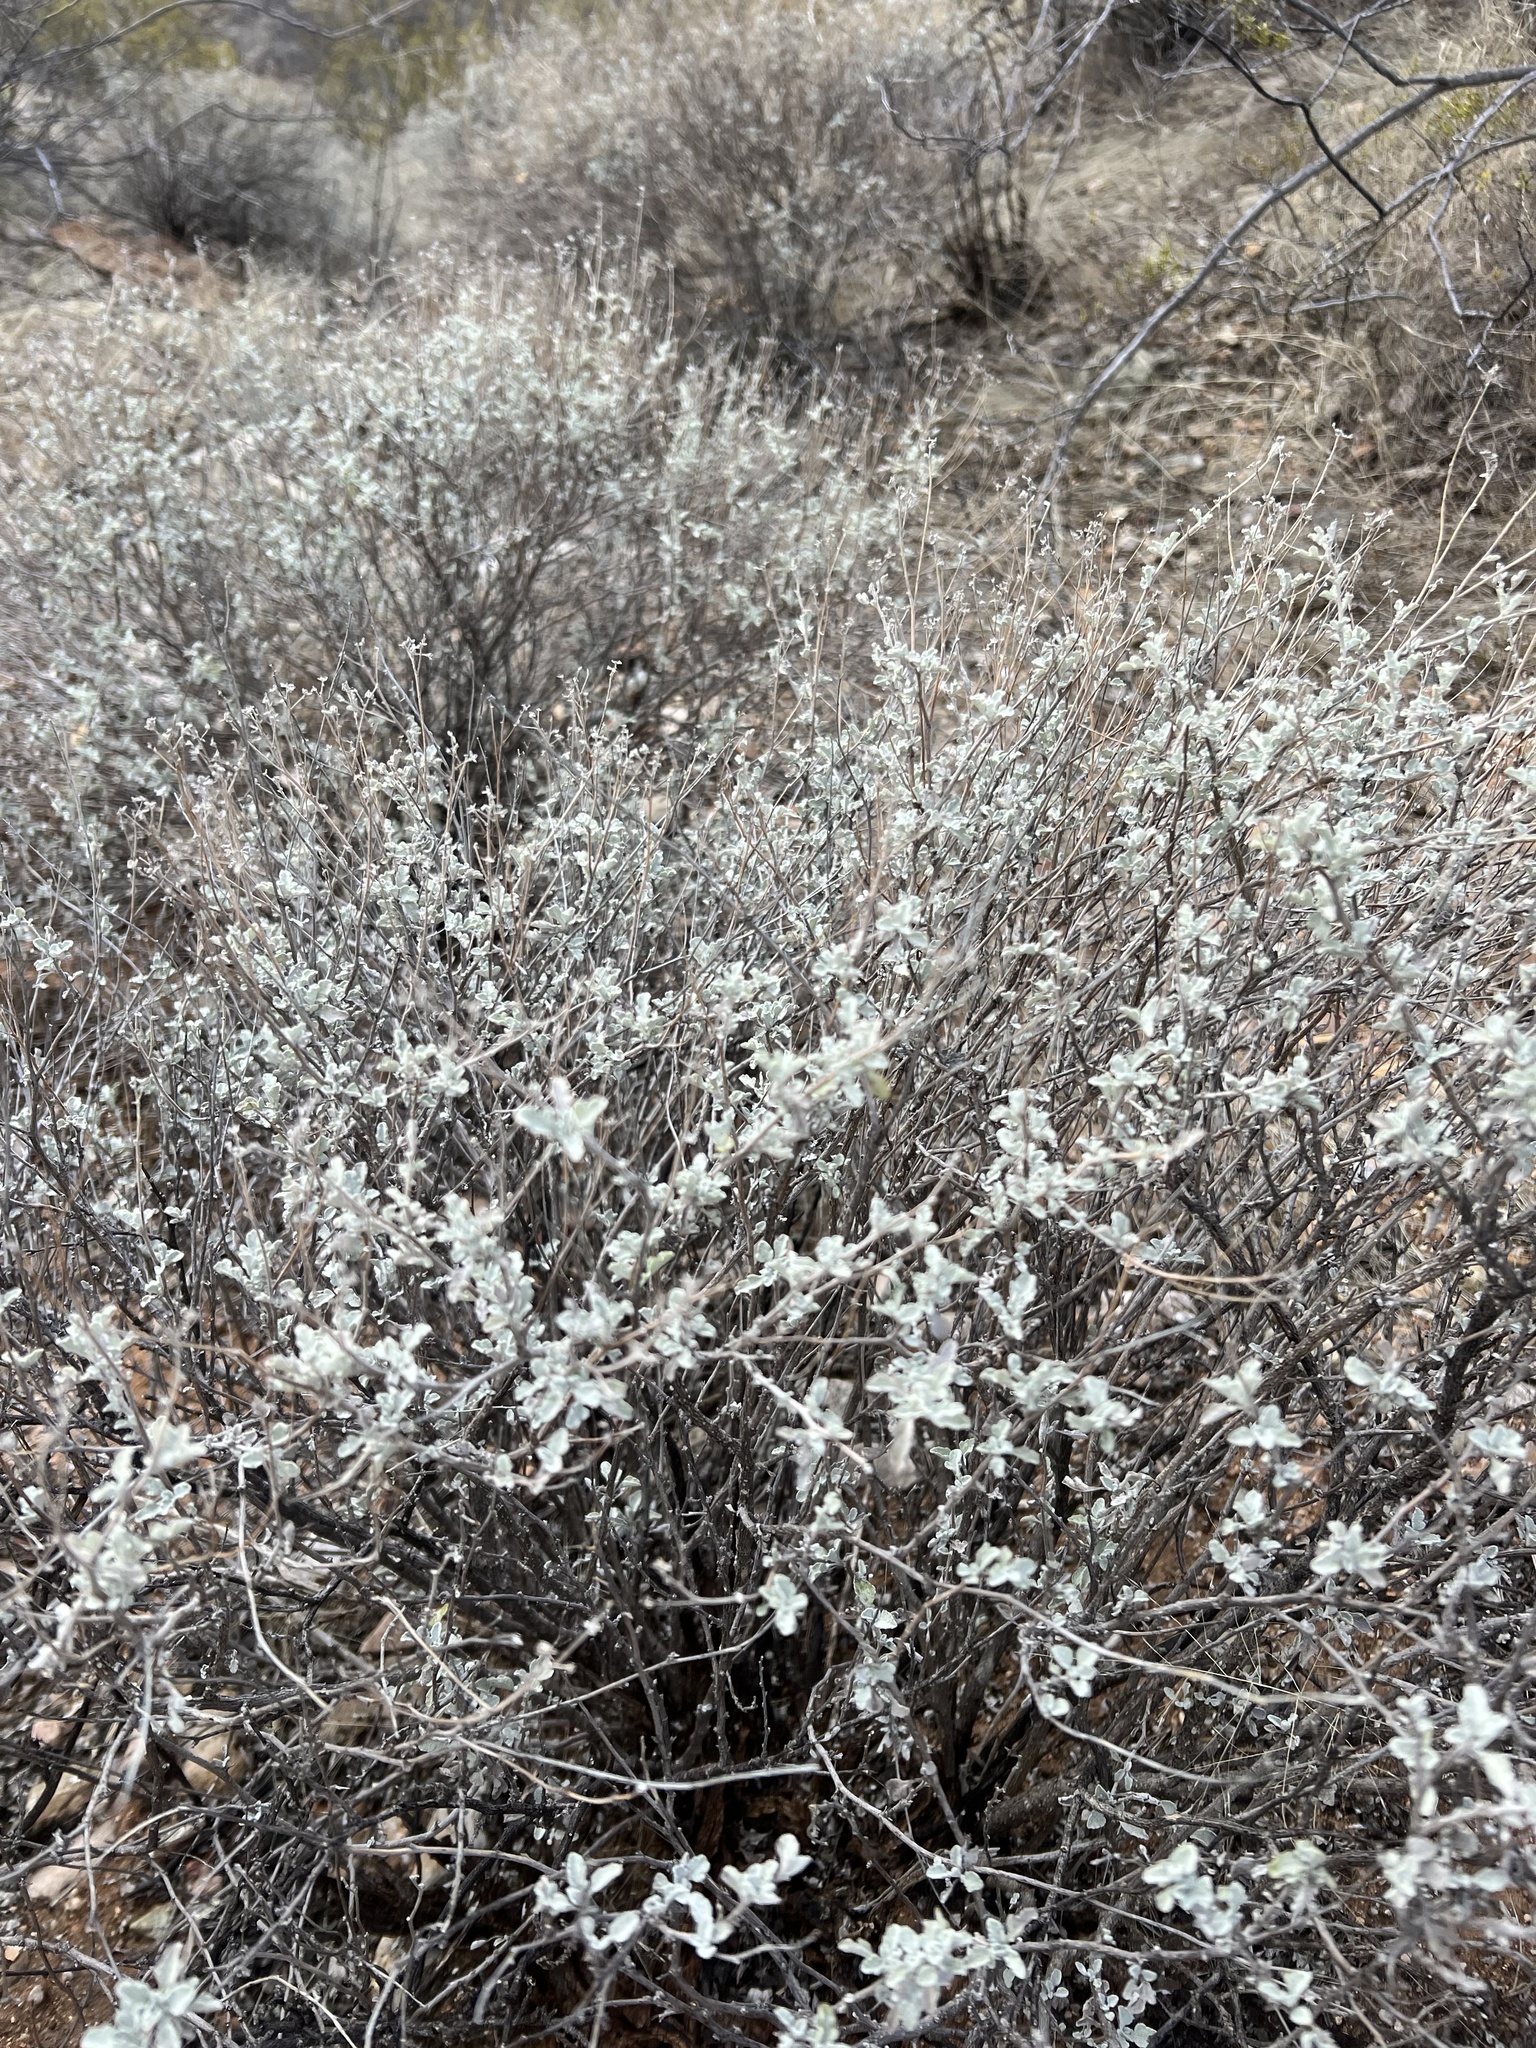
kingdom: Plantae
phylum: Tracheophyta
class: Magnoliopsida
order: Asterales
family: Asteraceae
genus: Parthenium
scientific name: Parthenium incanum
